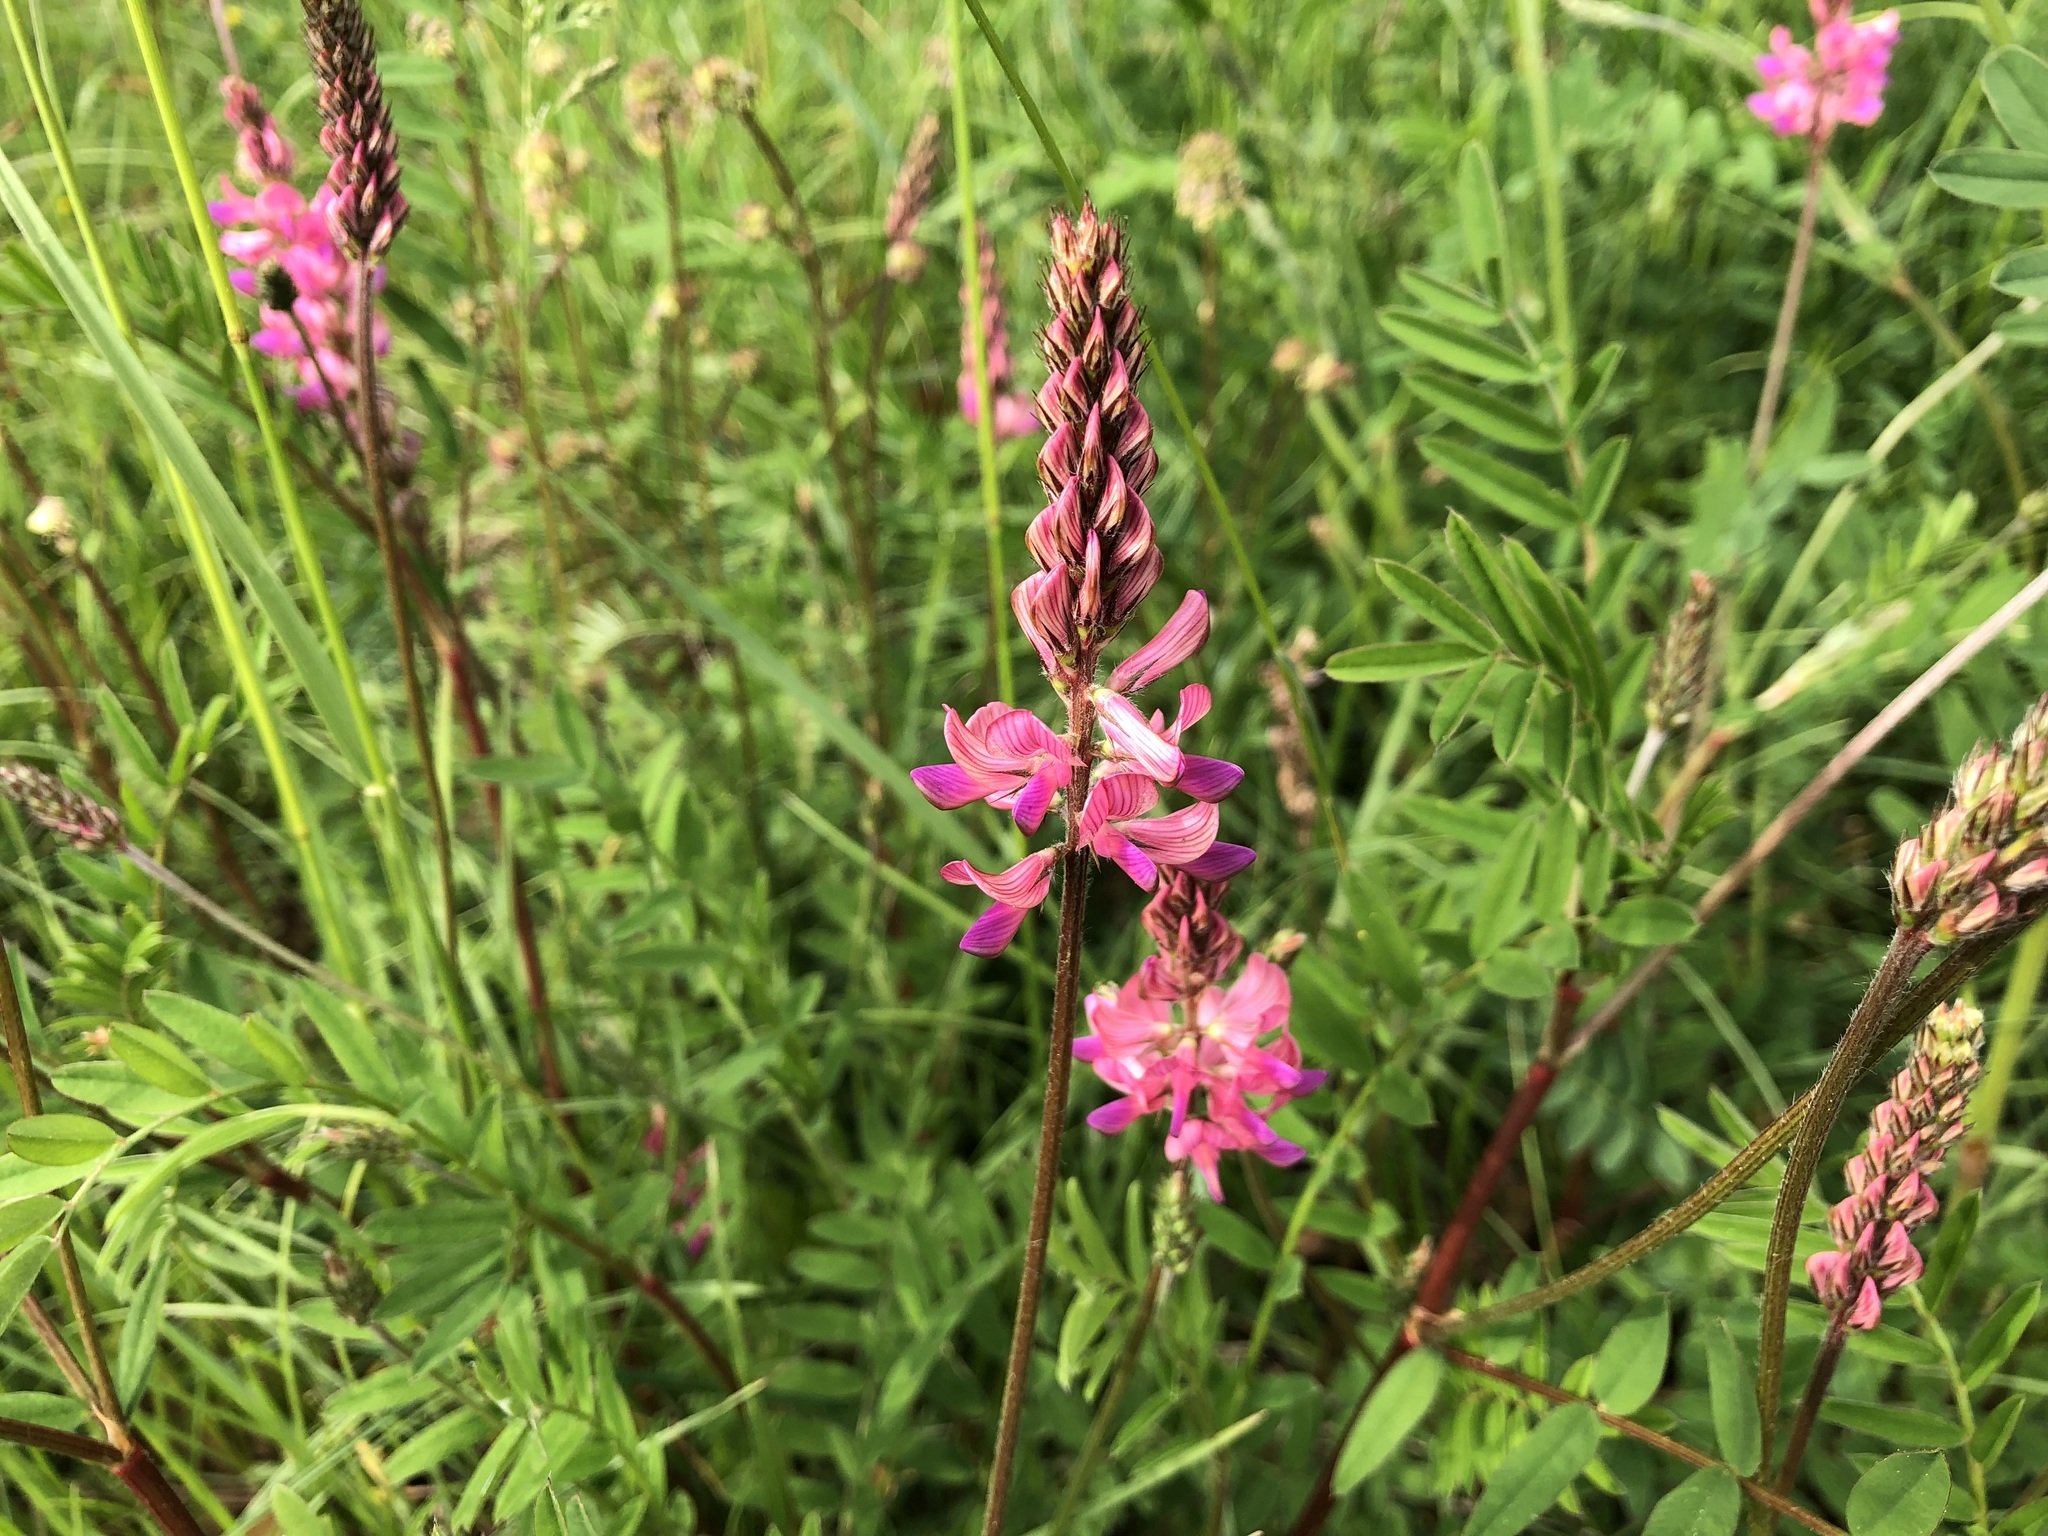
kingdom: Plantae
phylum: Tracheophyta
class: Magnoliopsida
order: Fabales
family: Fabaceae
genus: Onobrychis
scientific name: Onobrychis viciifolia
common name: Sainfoin
